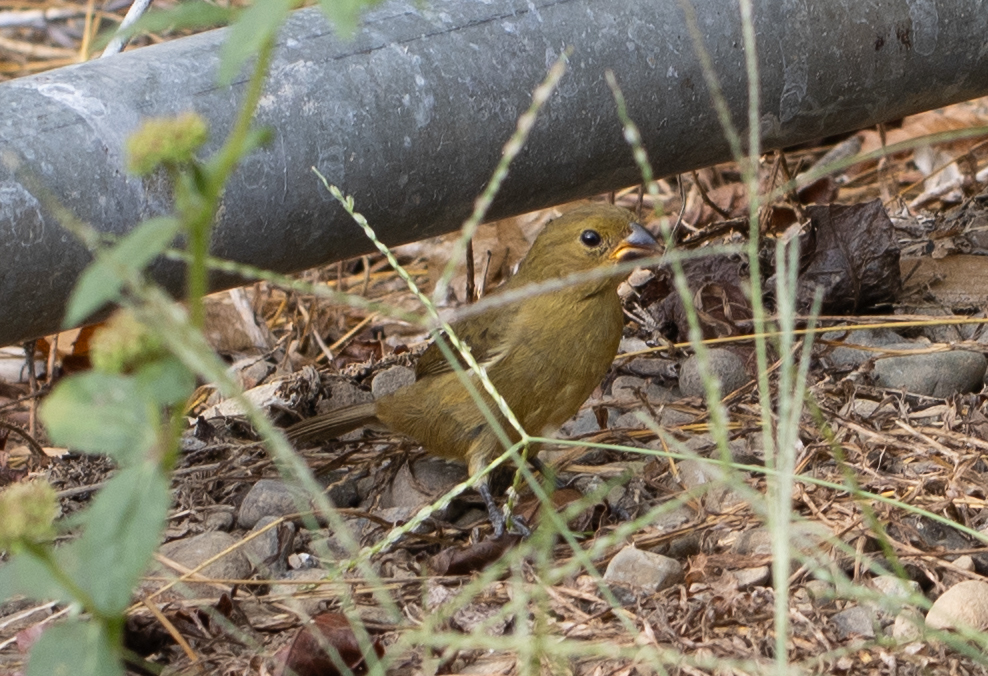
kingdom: Animalia
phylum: Chordata
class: Aves
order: Passeriformes
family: Thraupidae
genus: Sporophila
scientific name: Sporophila corvina
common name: Variable seedeater
